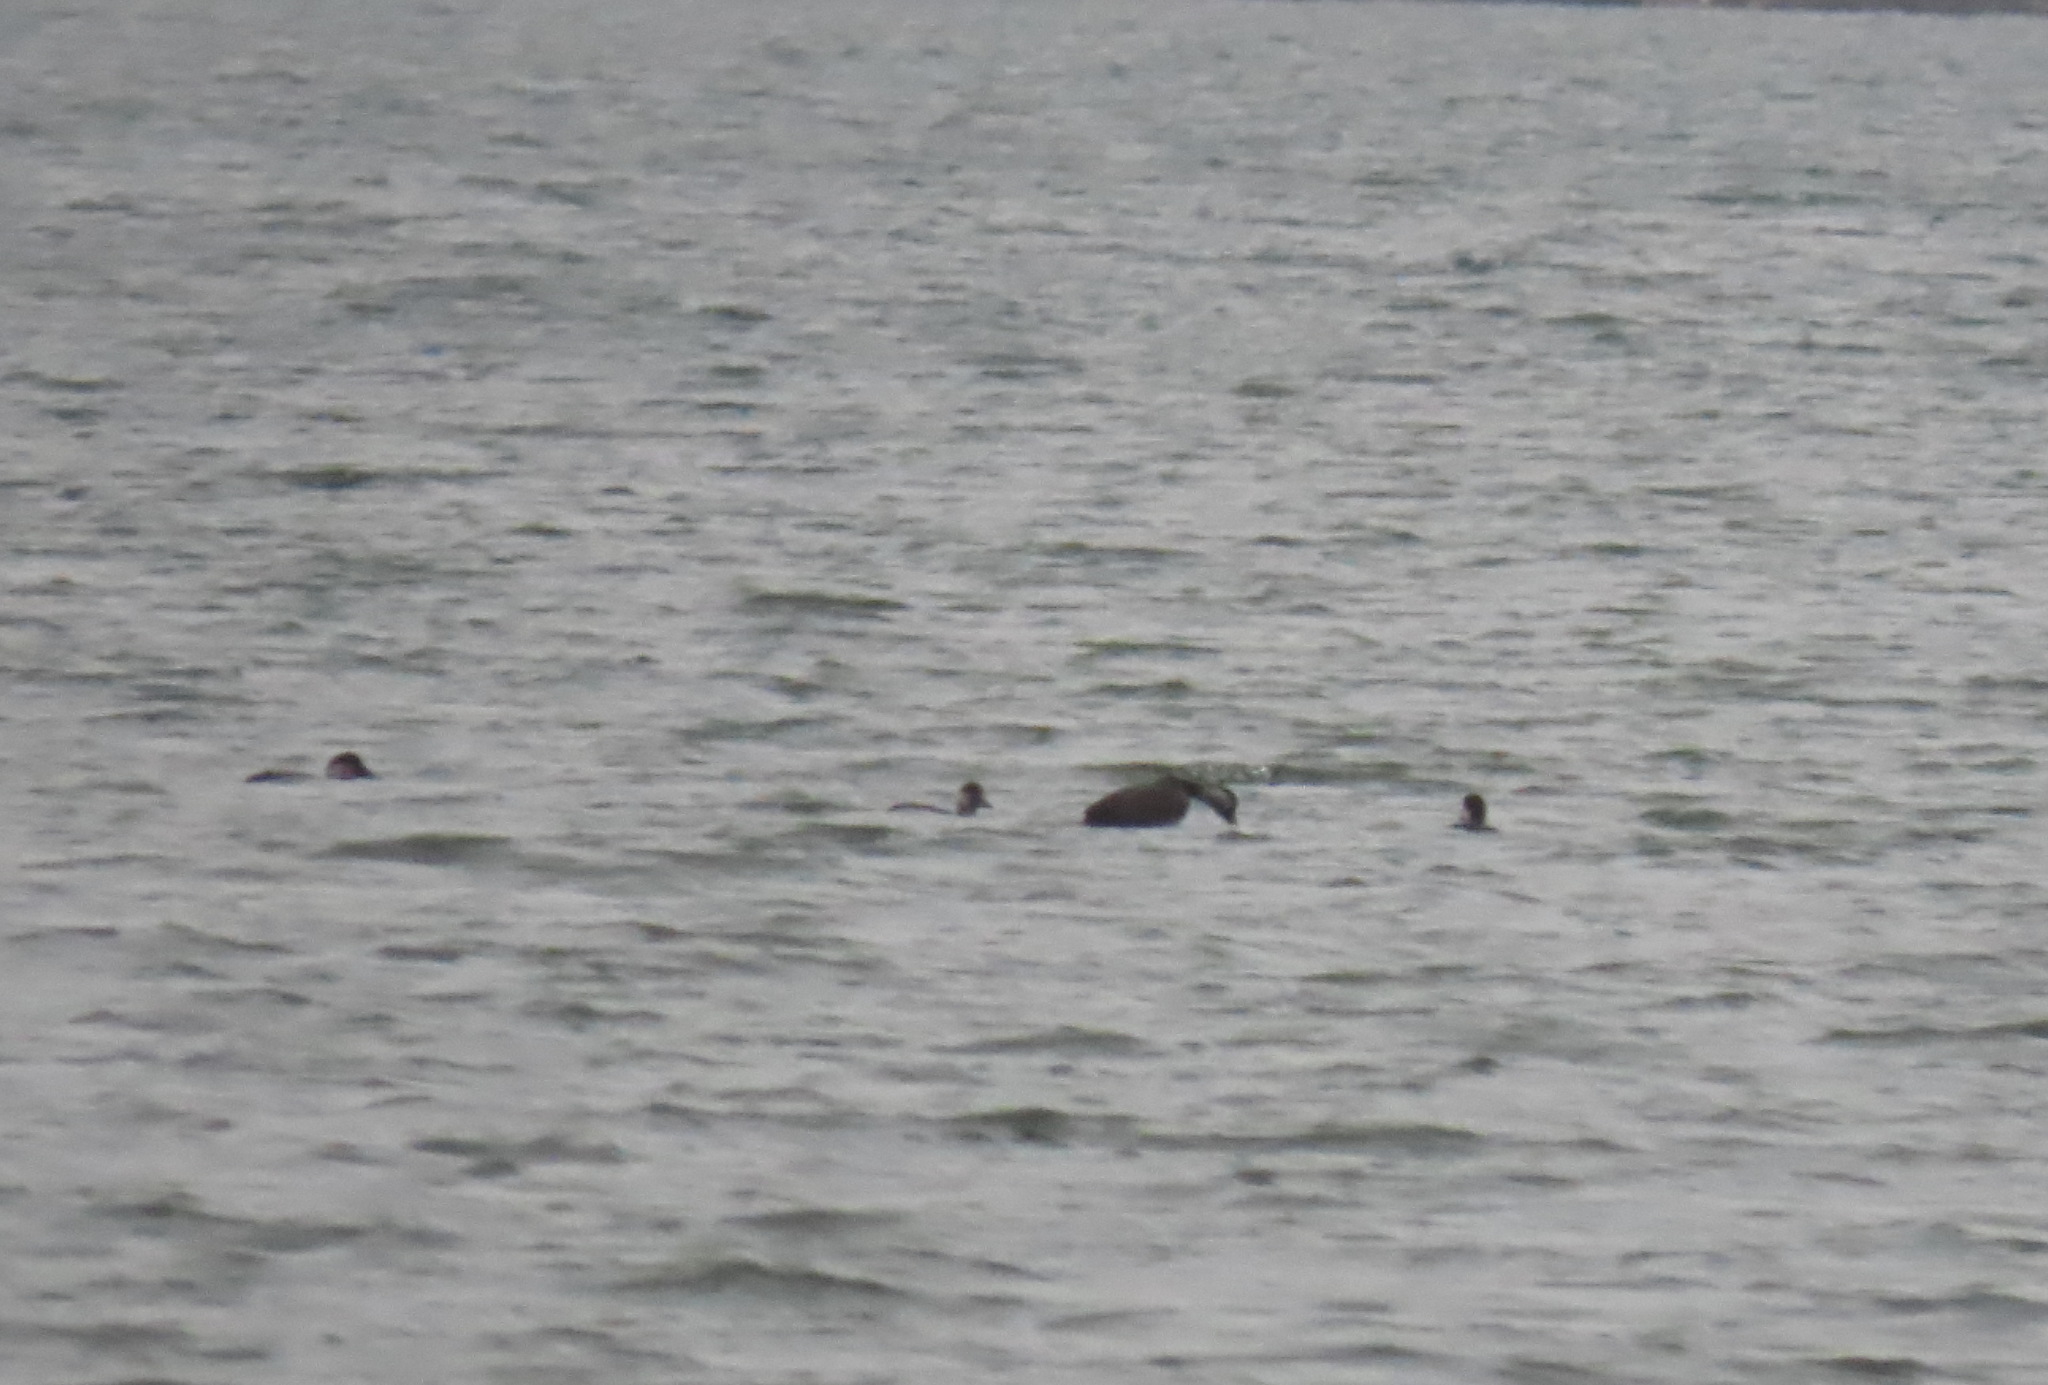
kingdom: Animalia
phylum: Chordata
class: Aves
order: Anseriformes
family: Anatidae
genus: Melanitta
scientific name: Melanitta nigra
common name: Common scoter
